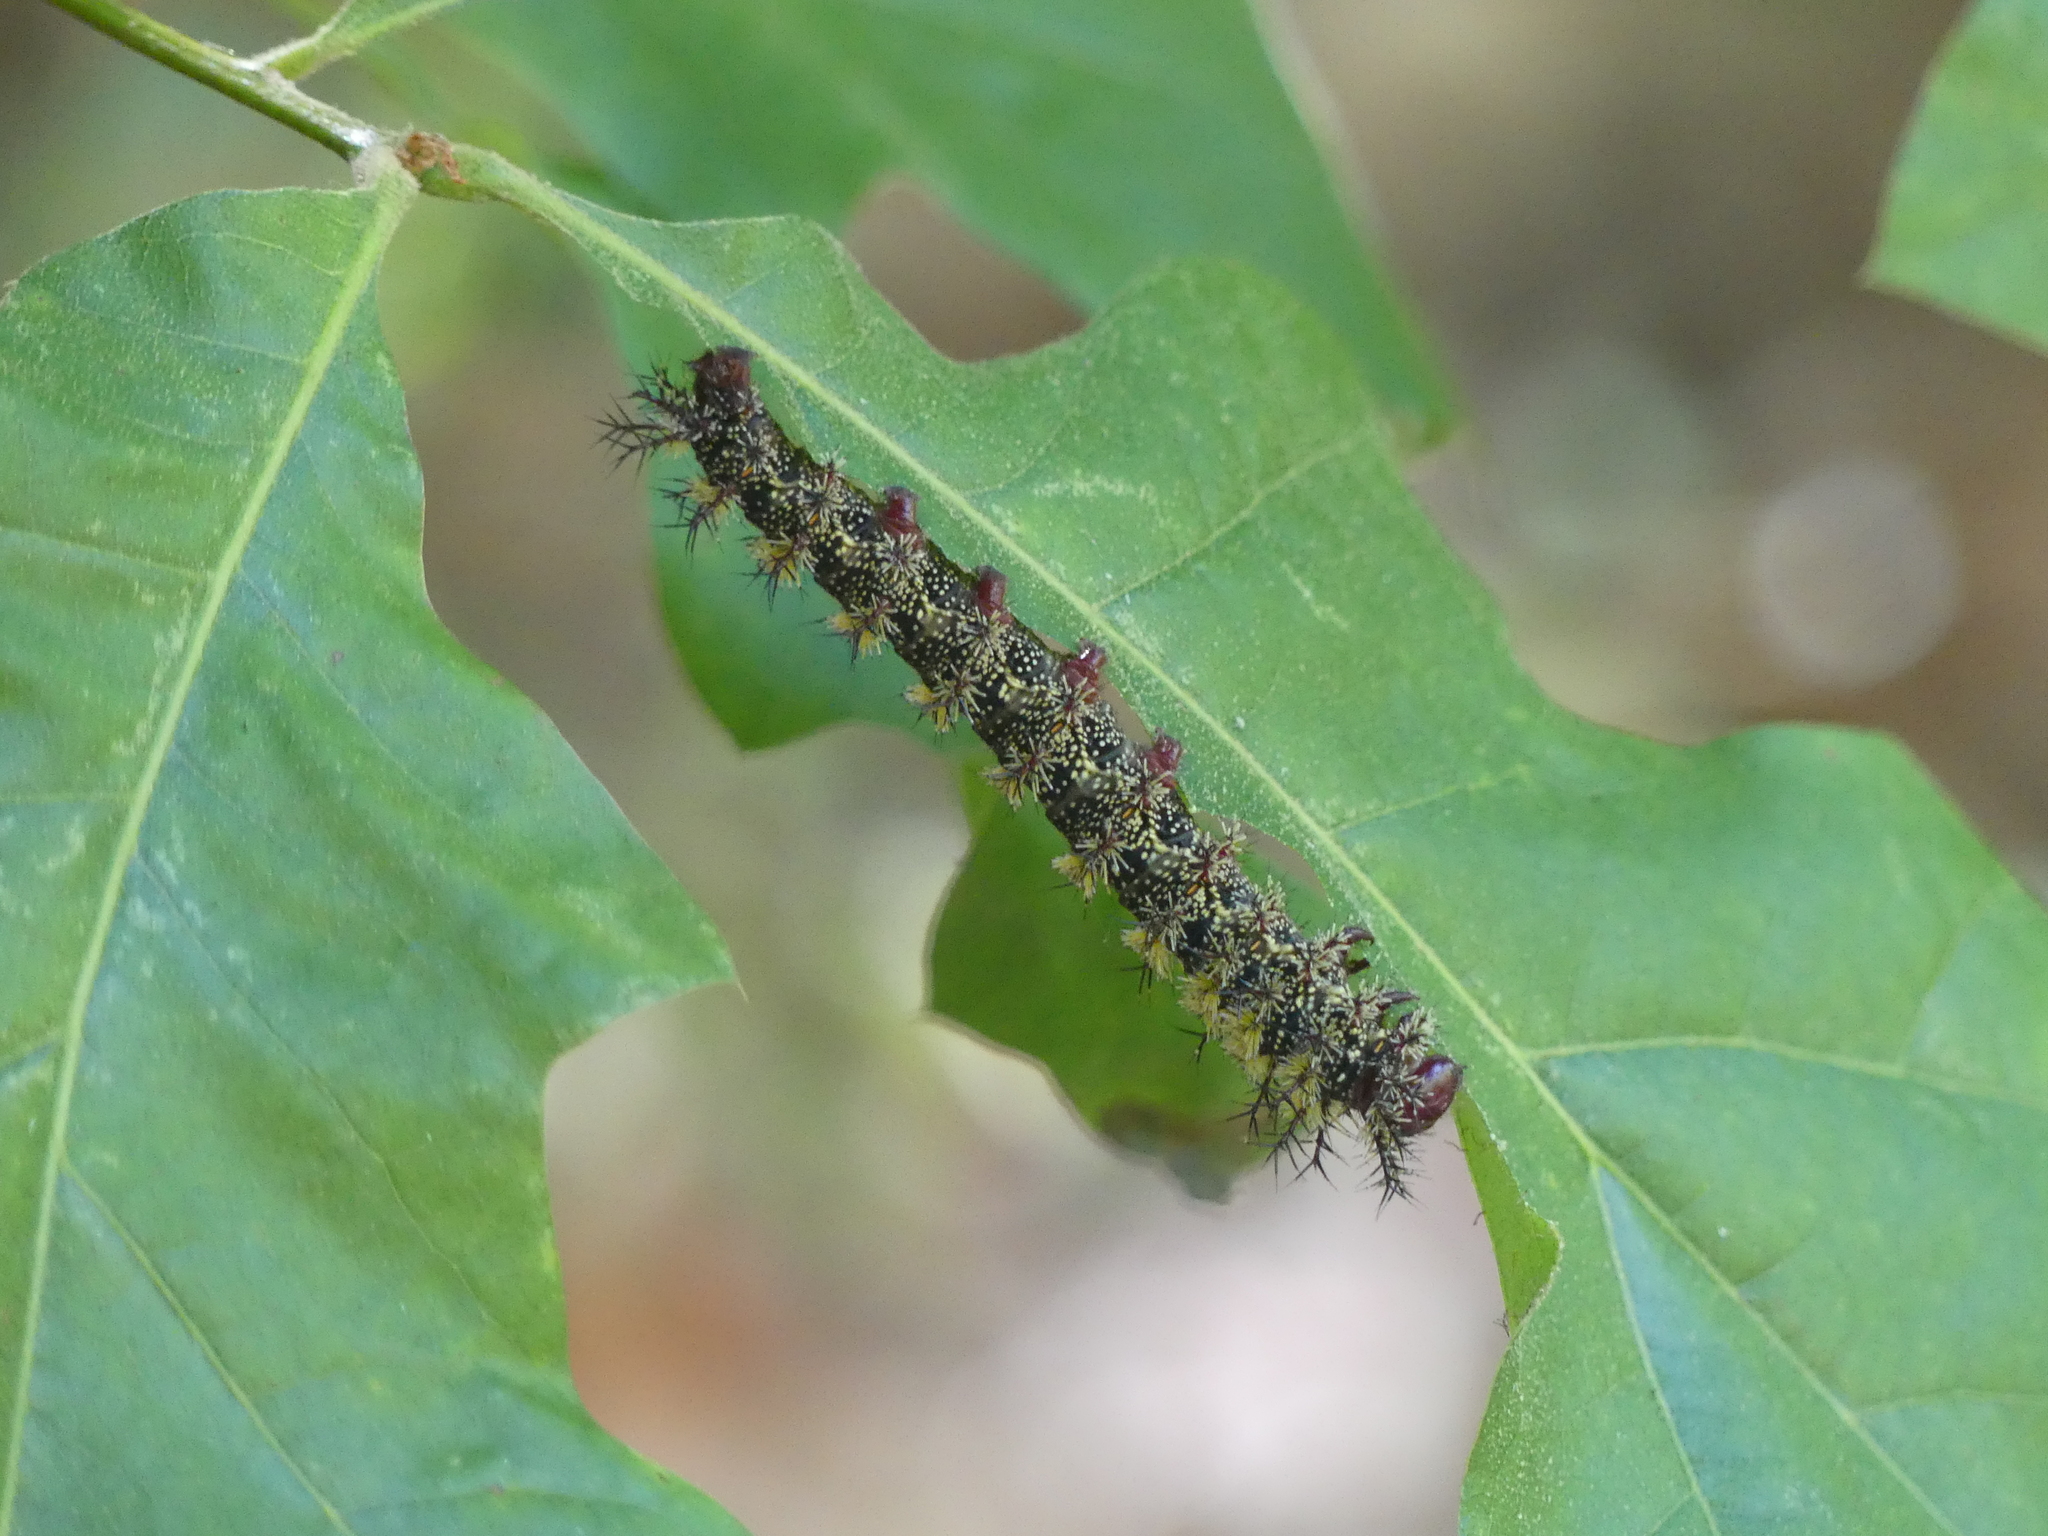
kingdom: Animalia
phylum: Arthropoda
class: Insecta
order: Lepidoptera
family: Saturniidae
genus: Hemileuca
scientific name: Hemileuca maia
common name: Eastern buckmoth
